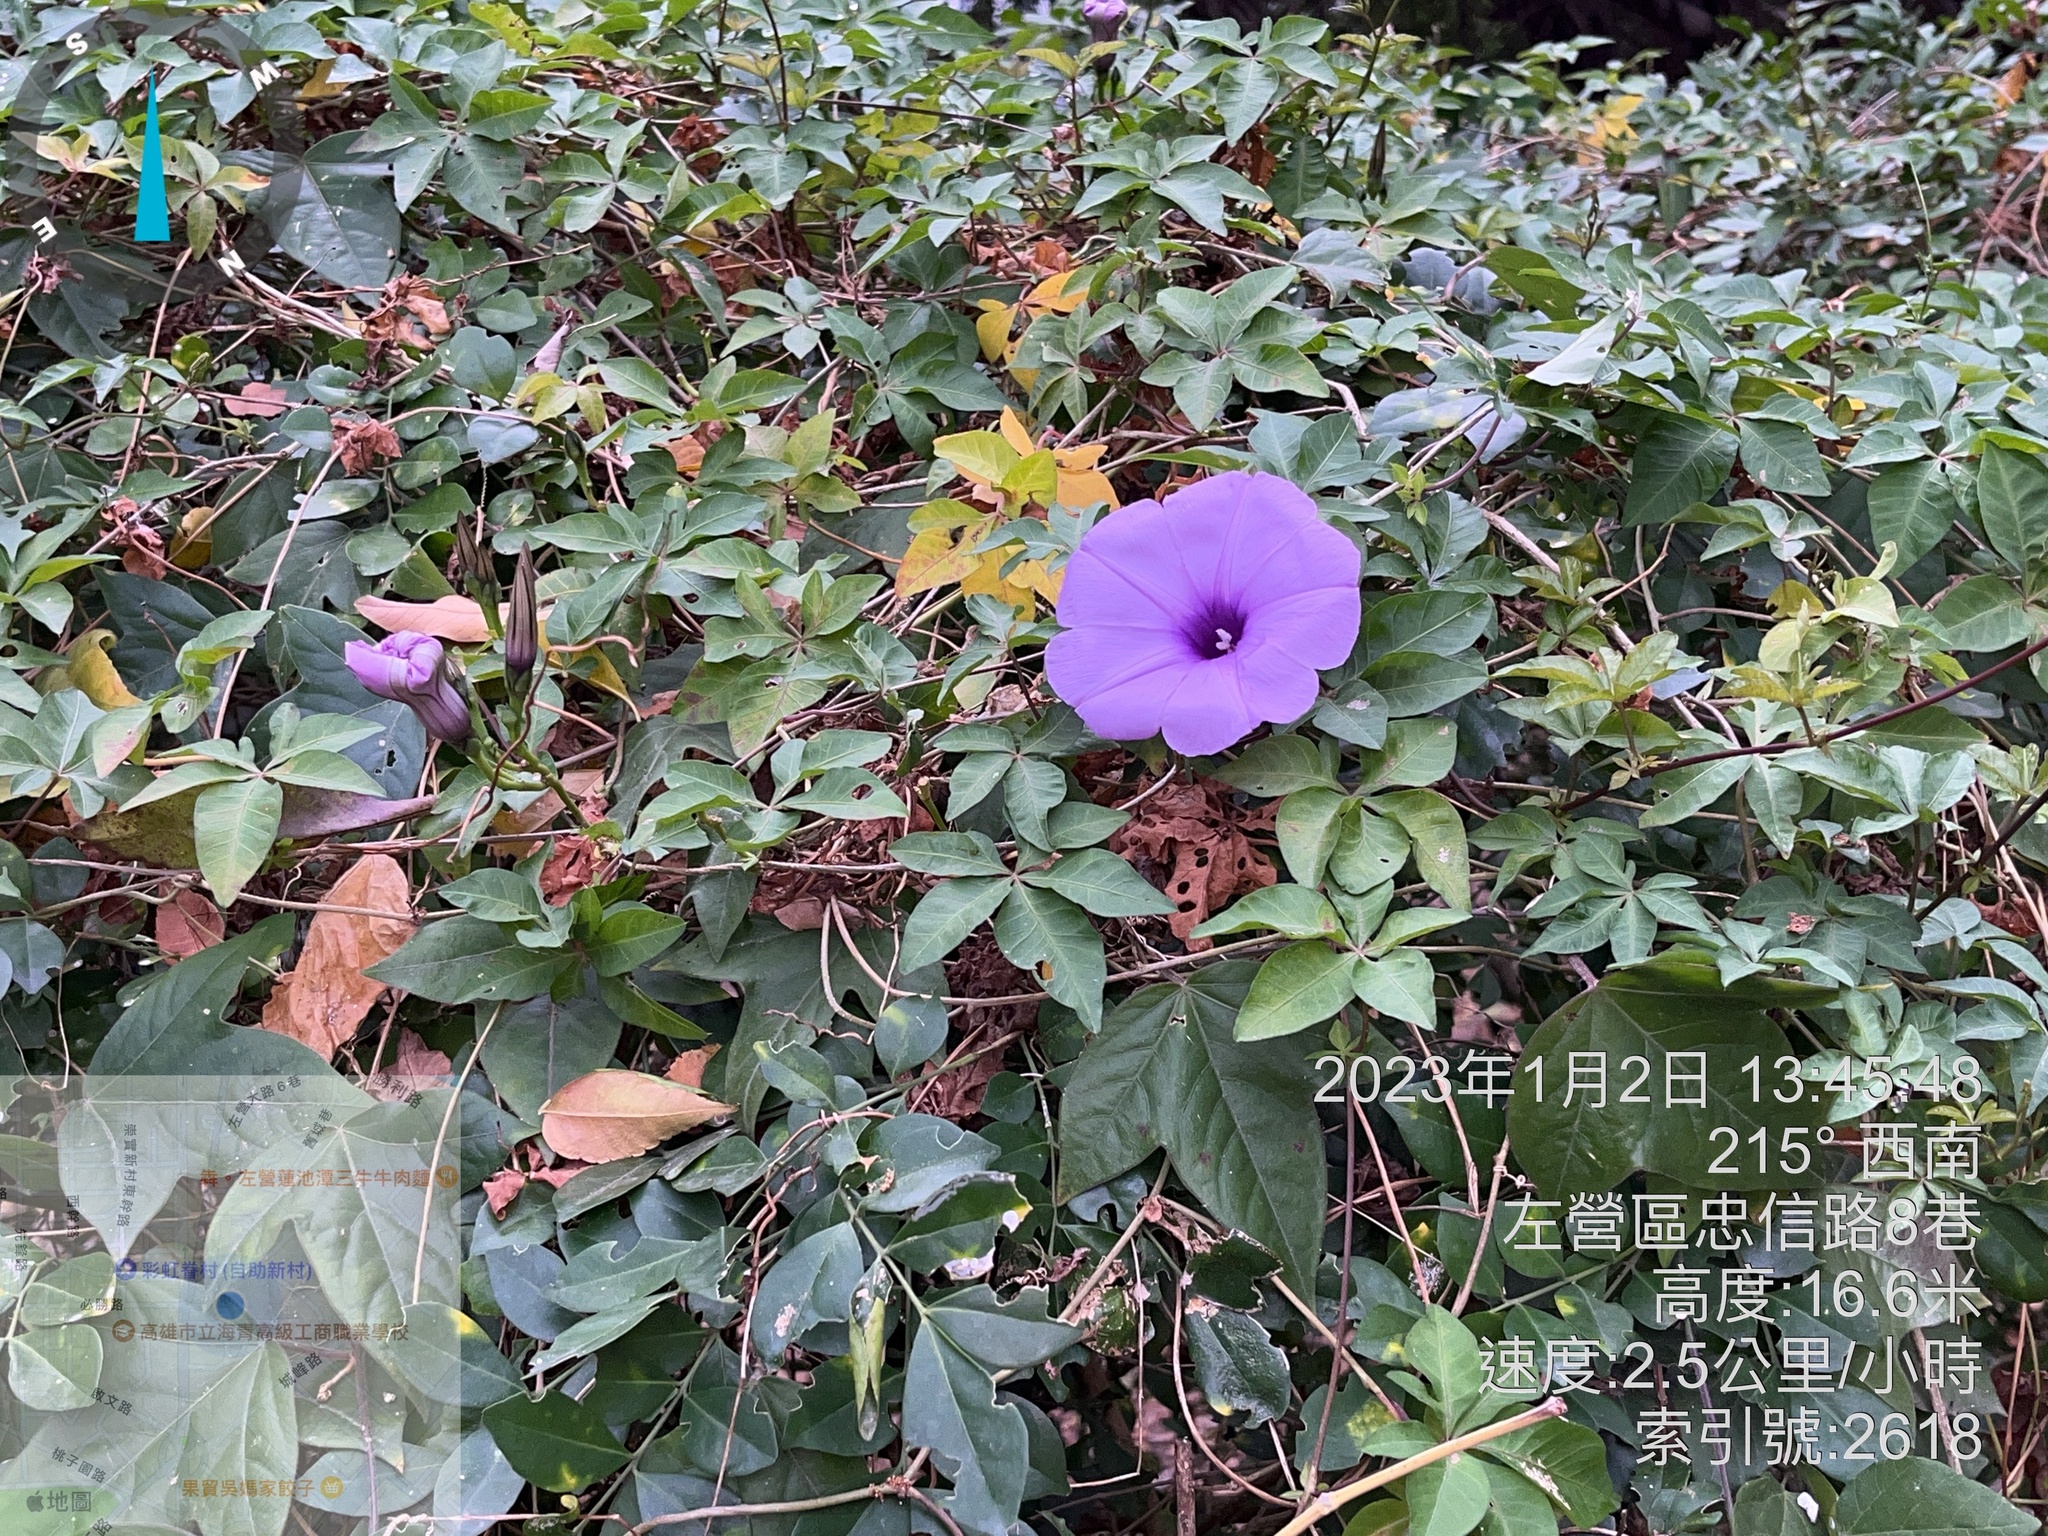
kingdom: Plantae
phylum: Tracheophyta
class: Magnoliopsida
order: Solanales
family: Convolvulaceae
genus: Ipomoea
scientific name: Ipomoea cairica
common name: Mile a minute vine
